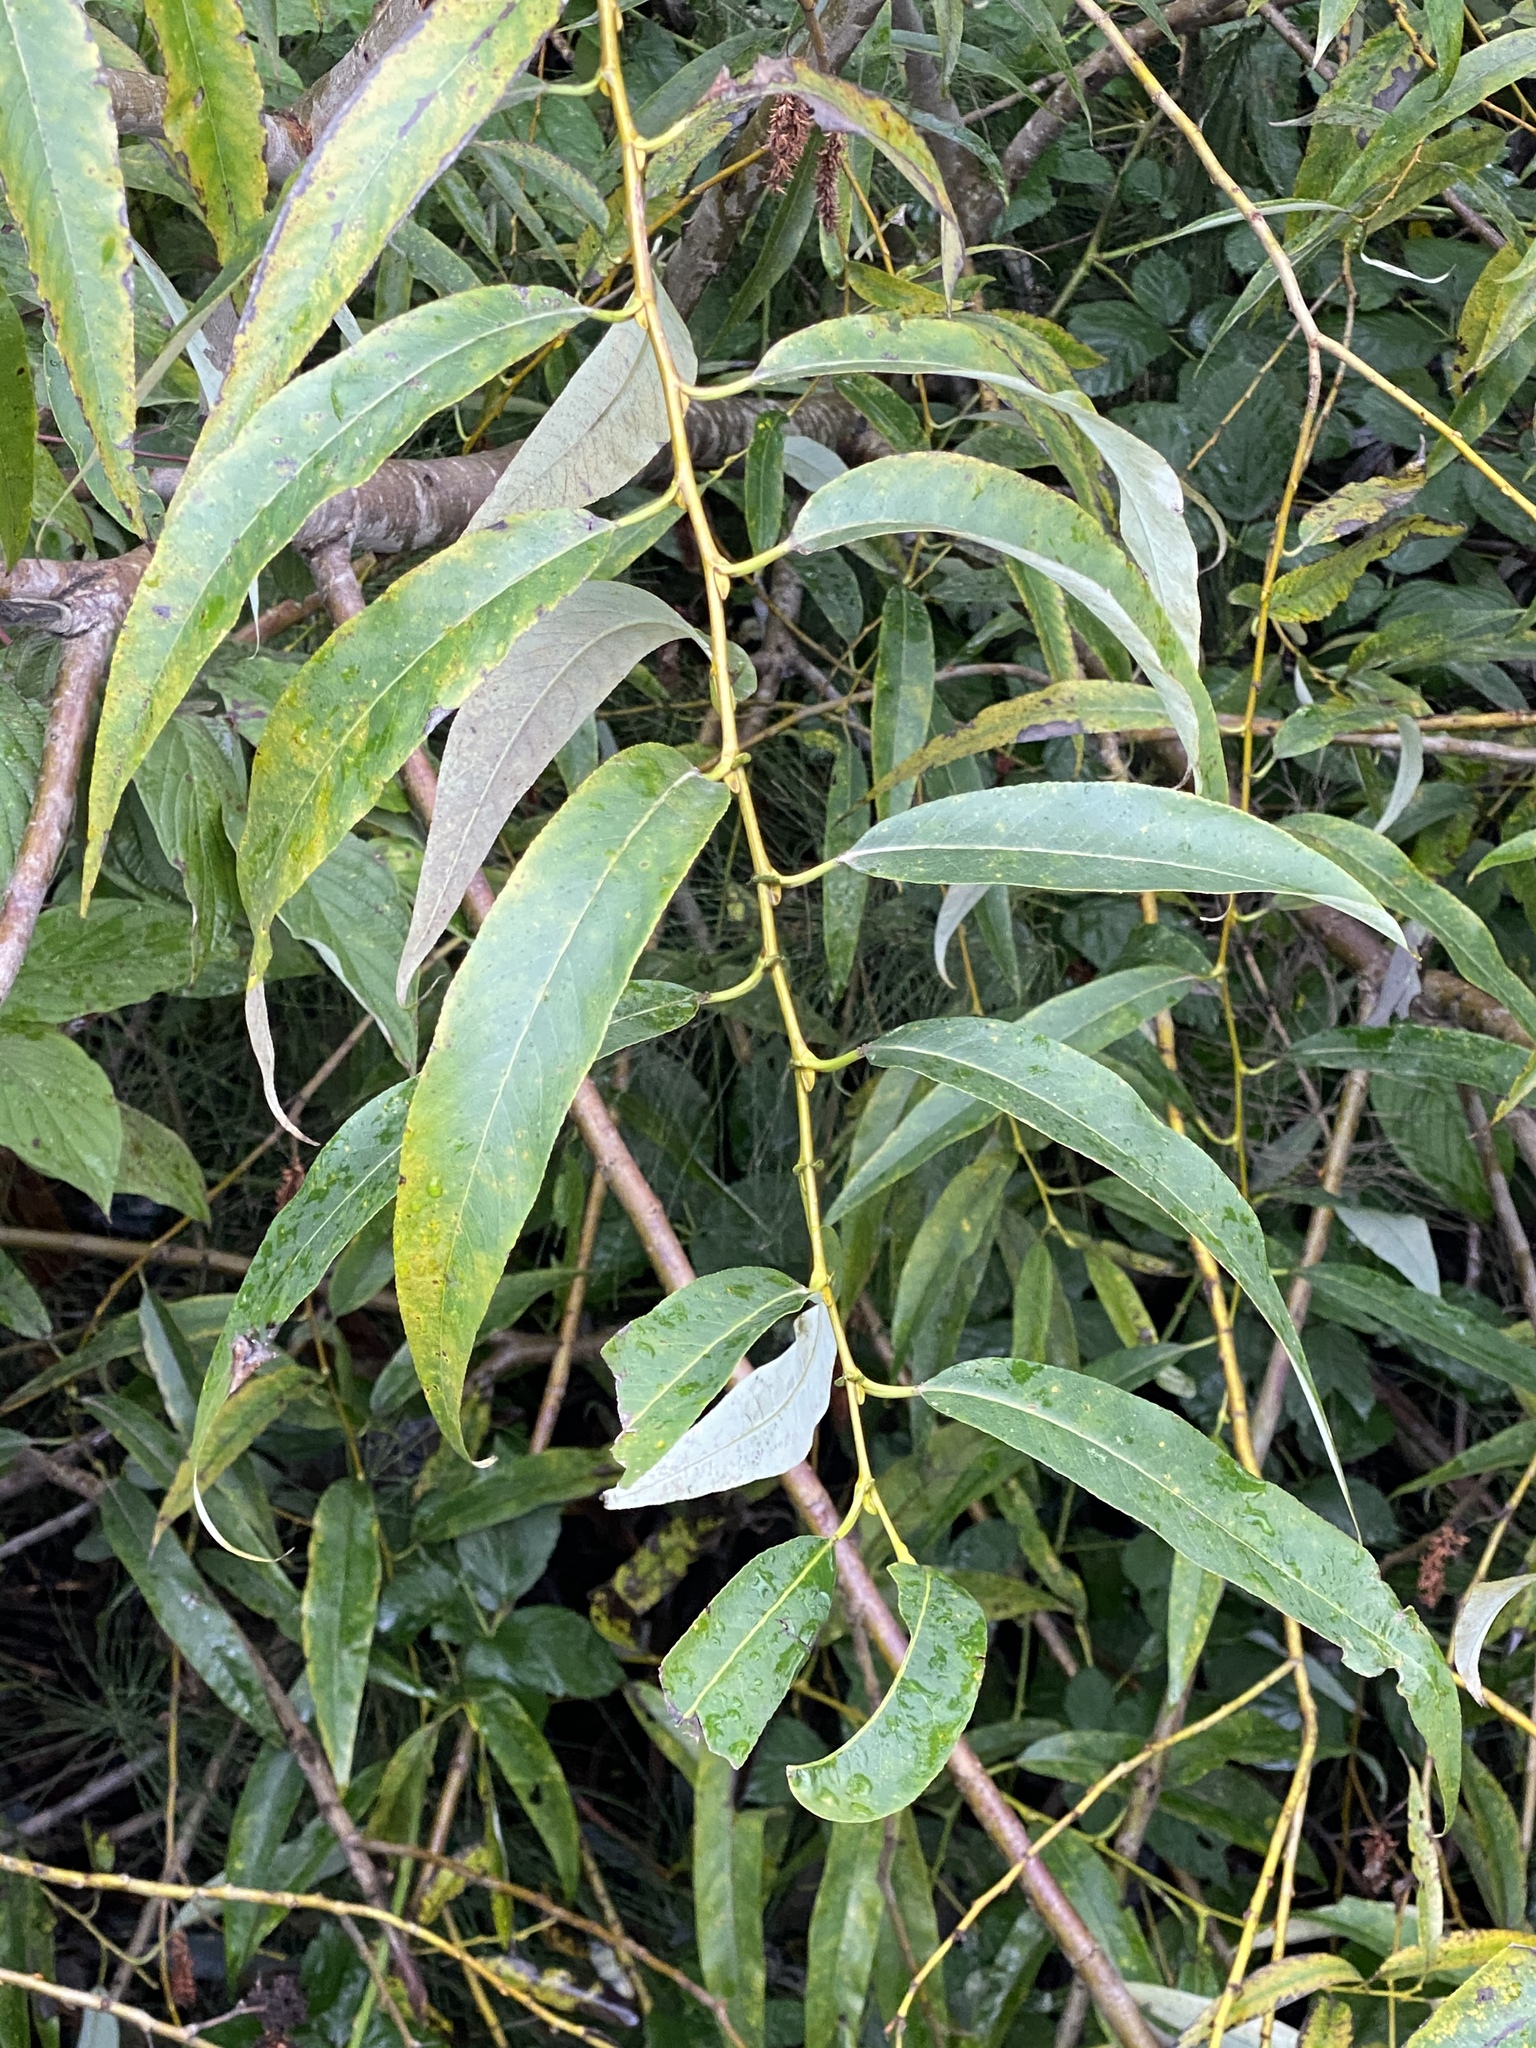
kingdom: Plantae
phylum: Tracheophyta
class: Magnoliopsida
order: Malpighiales
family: Salicaceae
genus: Salix
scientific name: Salix lucida
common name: Shining willow
